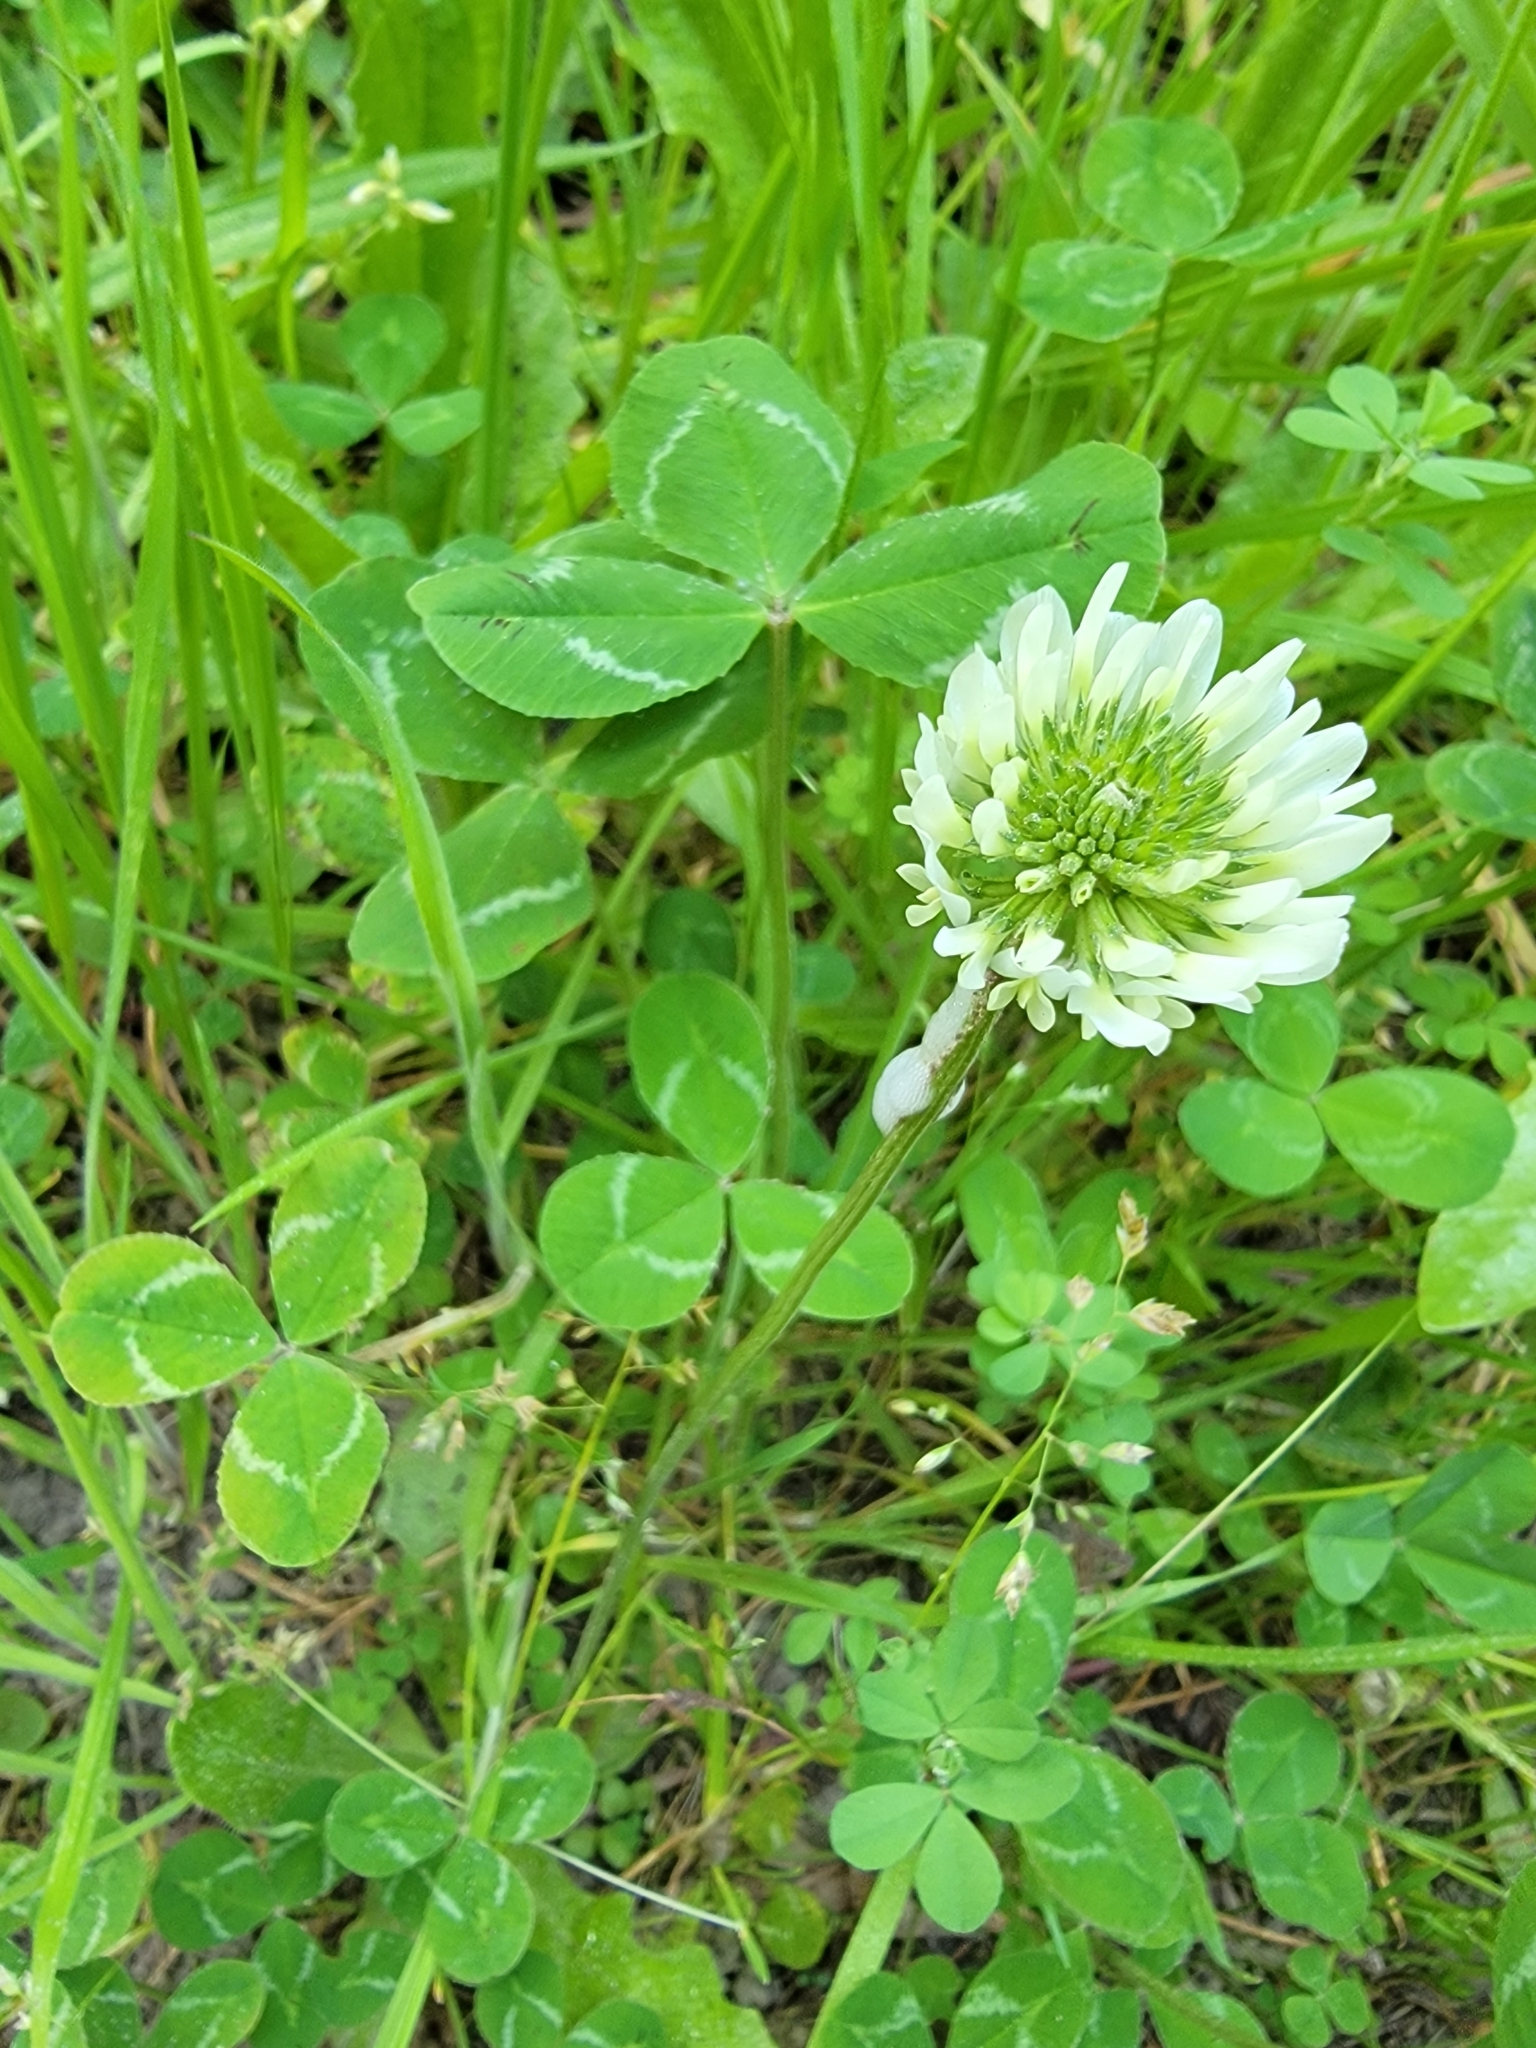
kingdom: Plantae
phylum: Tracheophyta
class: Magnoliopsida
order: Fabales
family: Fabaceae
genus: Trifolium
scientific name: Trifolium repens
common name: White clover
